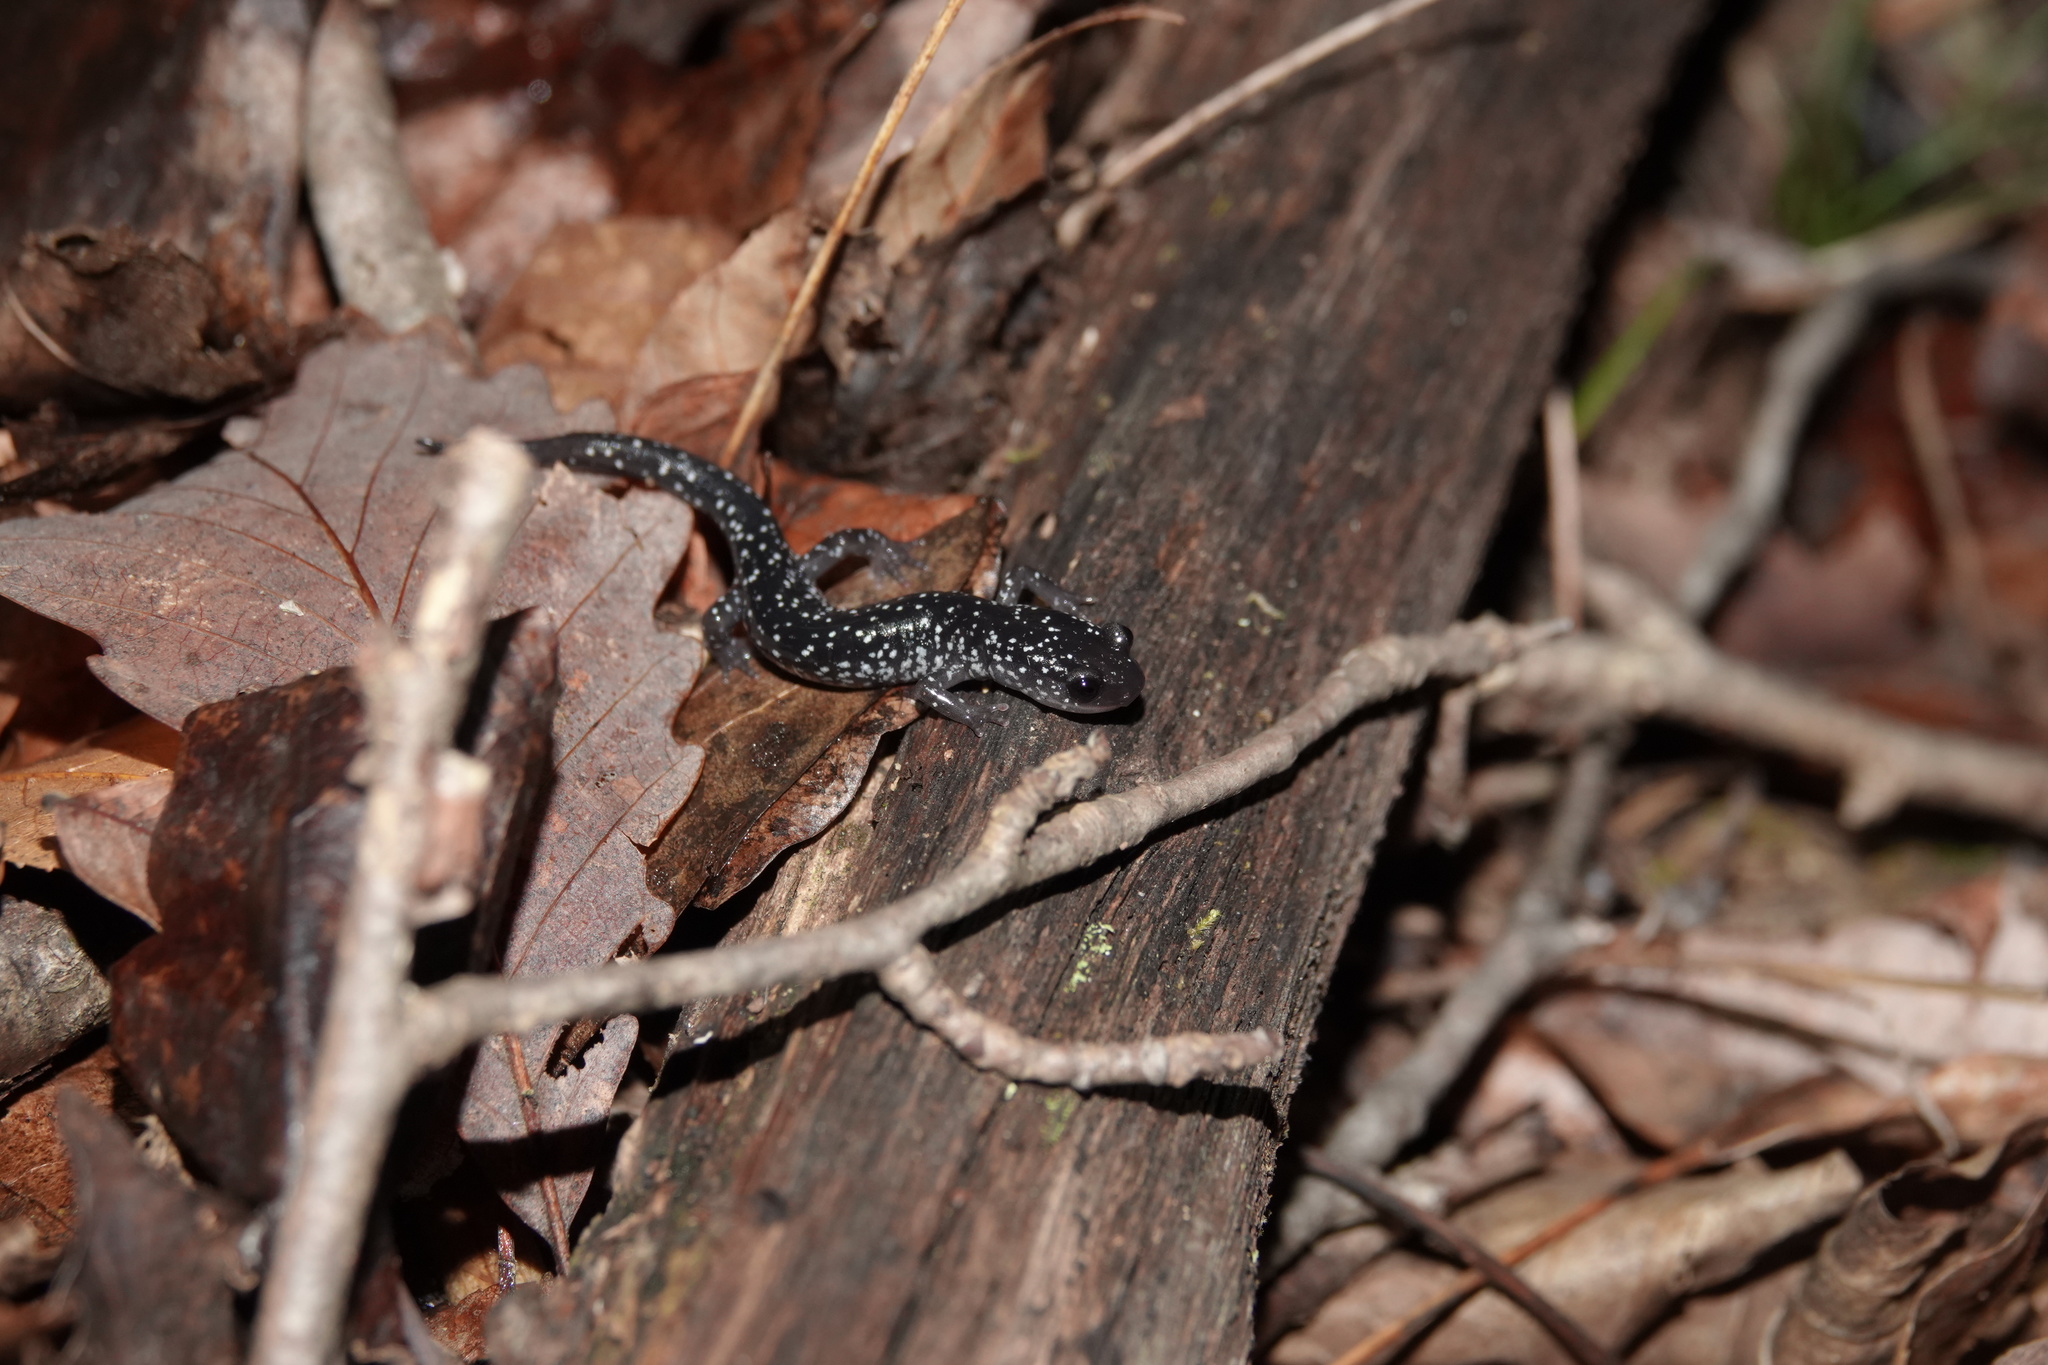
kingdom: Animalia
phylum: Chordata
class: Amphibia
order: Caudata
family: Plethodontidae
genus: Plethodon
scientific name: Plethodon cylindraceus
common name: White-spotted slimy salamander
